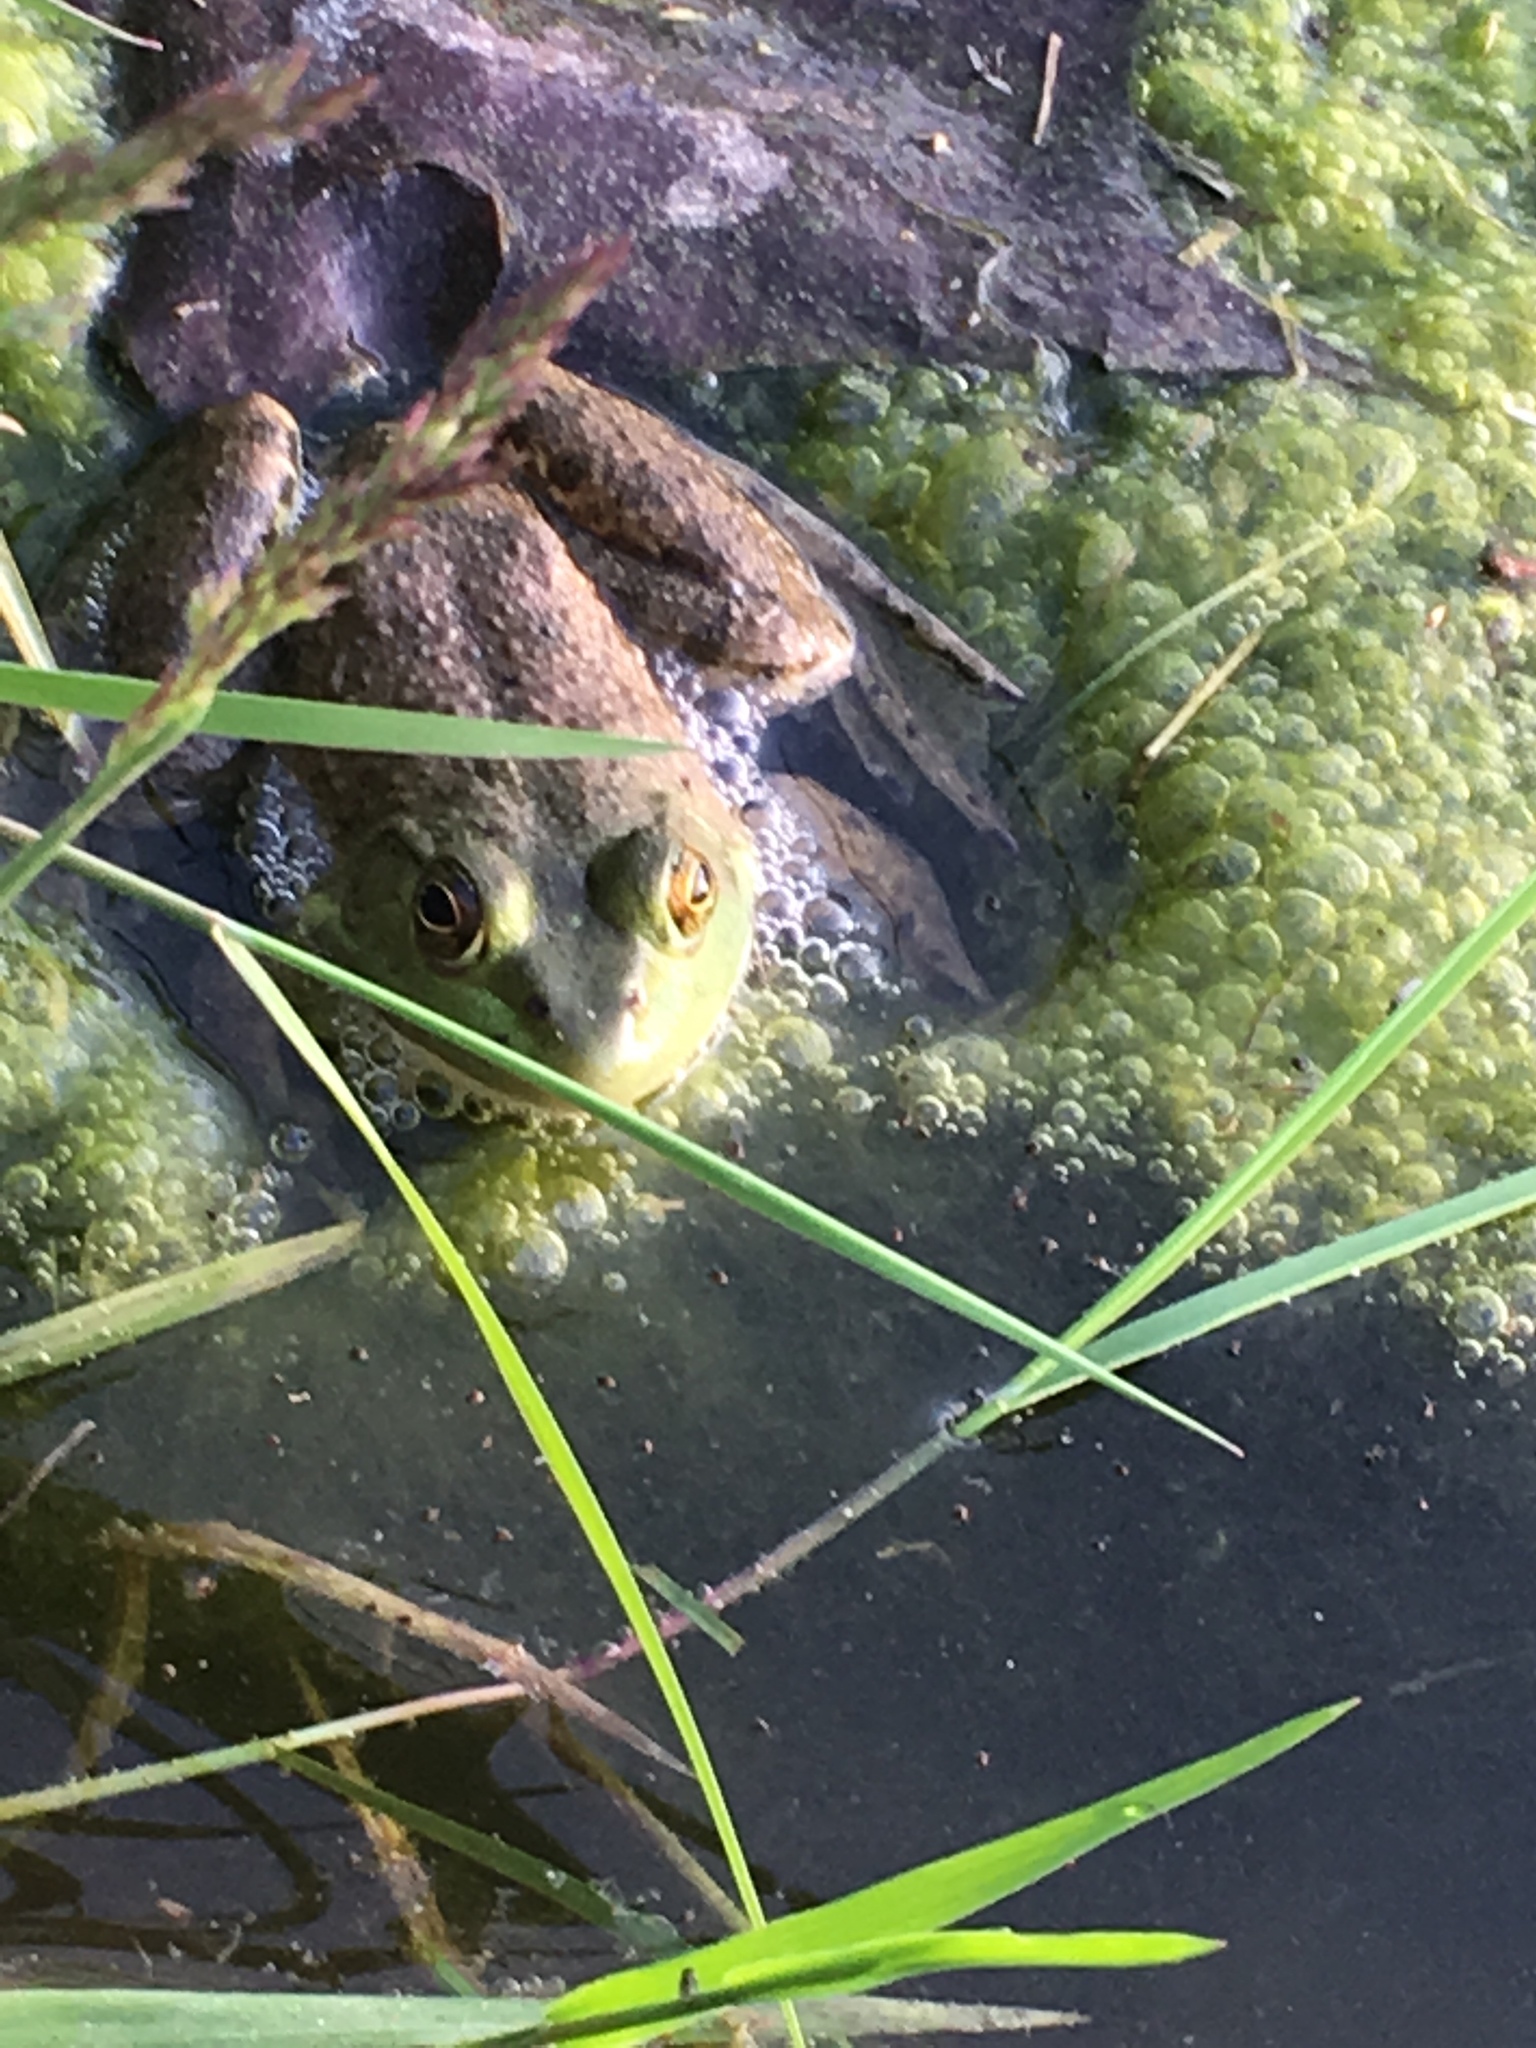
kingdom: Animalia
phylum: Chordata
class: Amphibia
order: Anura
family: Ranidae
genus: Lithobates
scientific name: Lithobates catesbeianus
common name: American bullfrog
